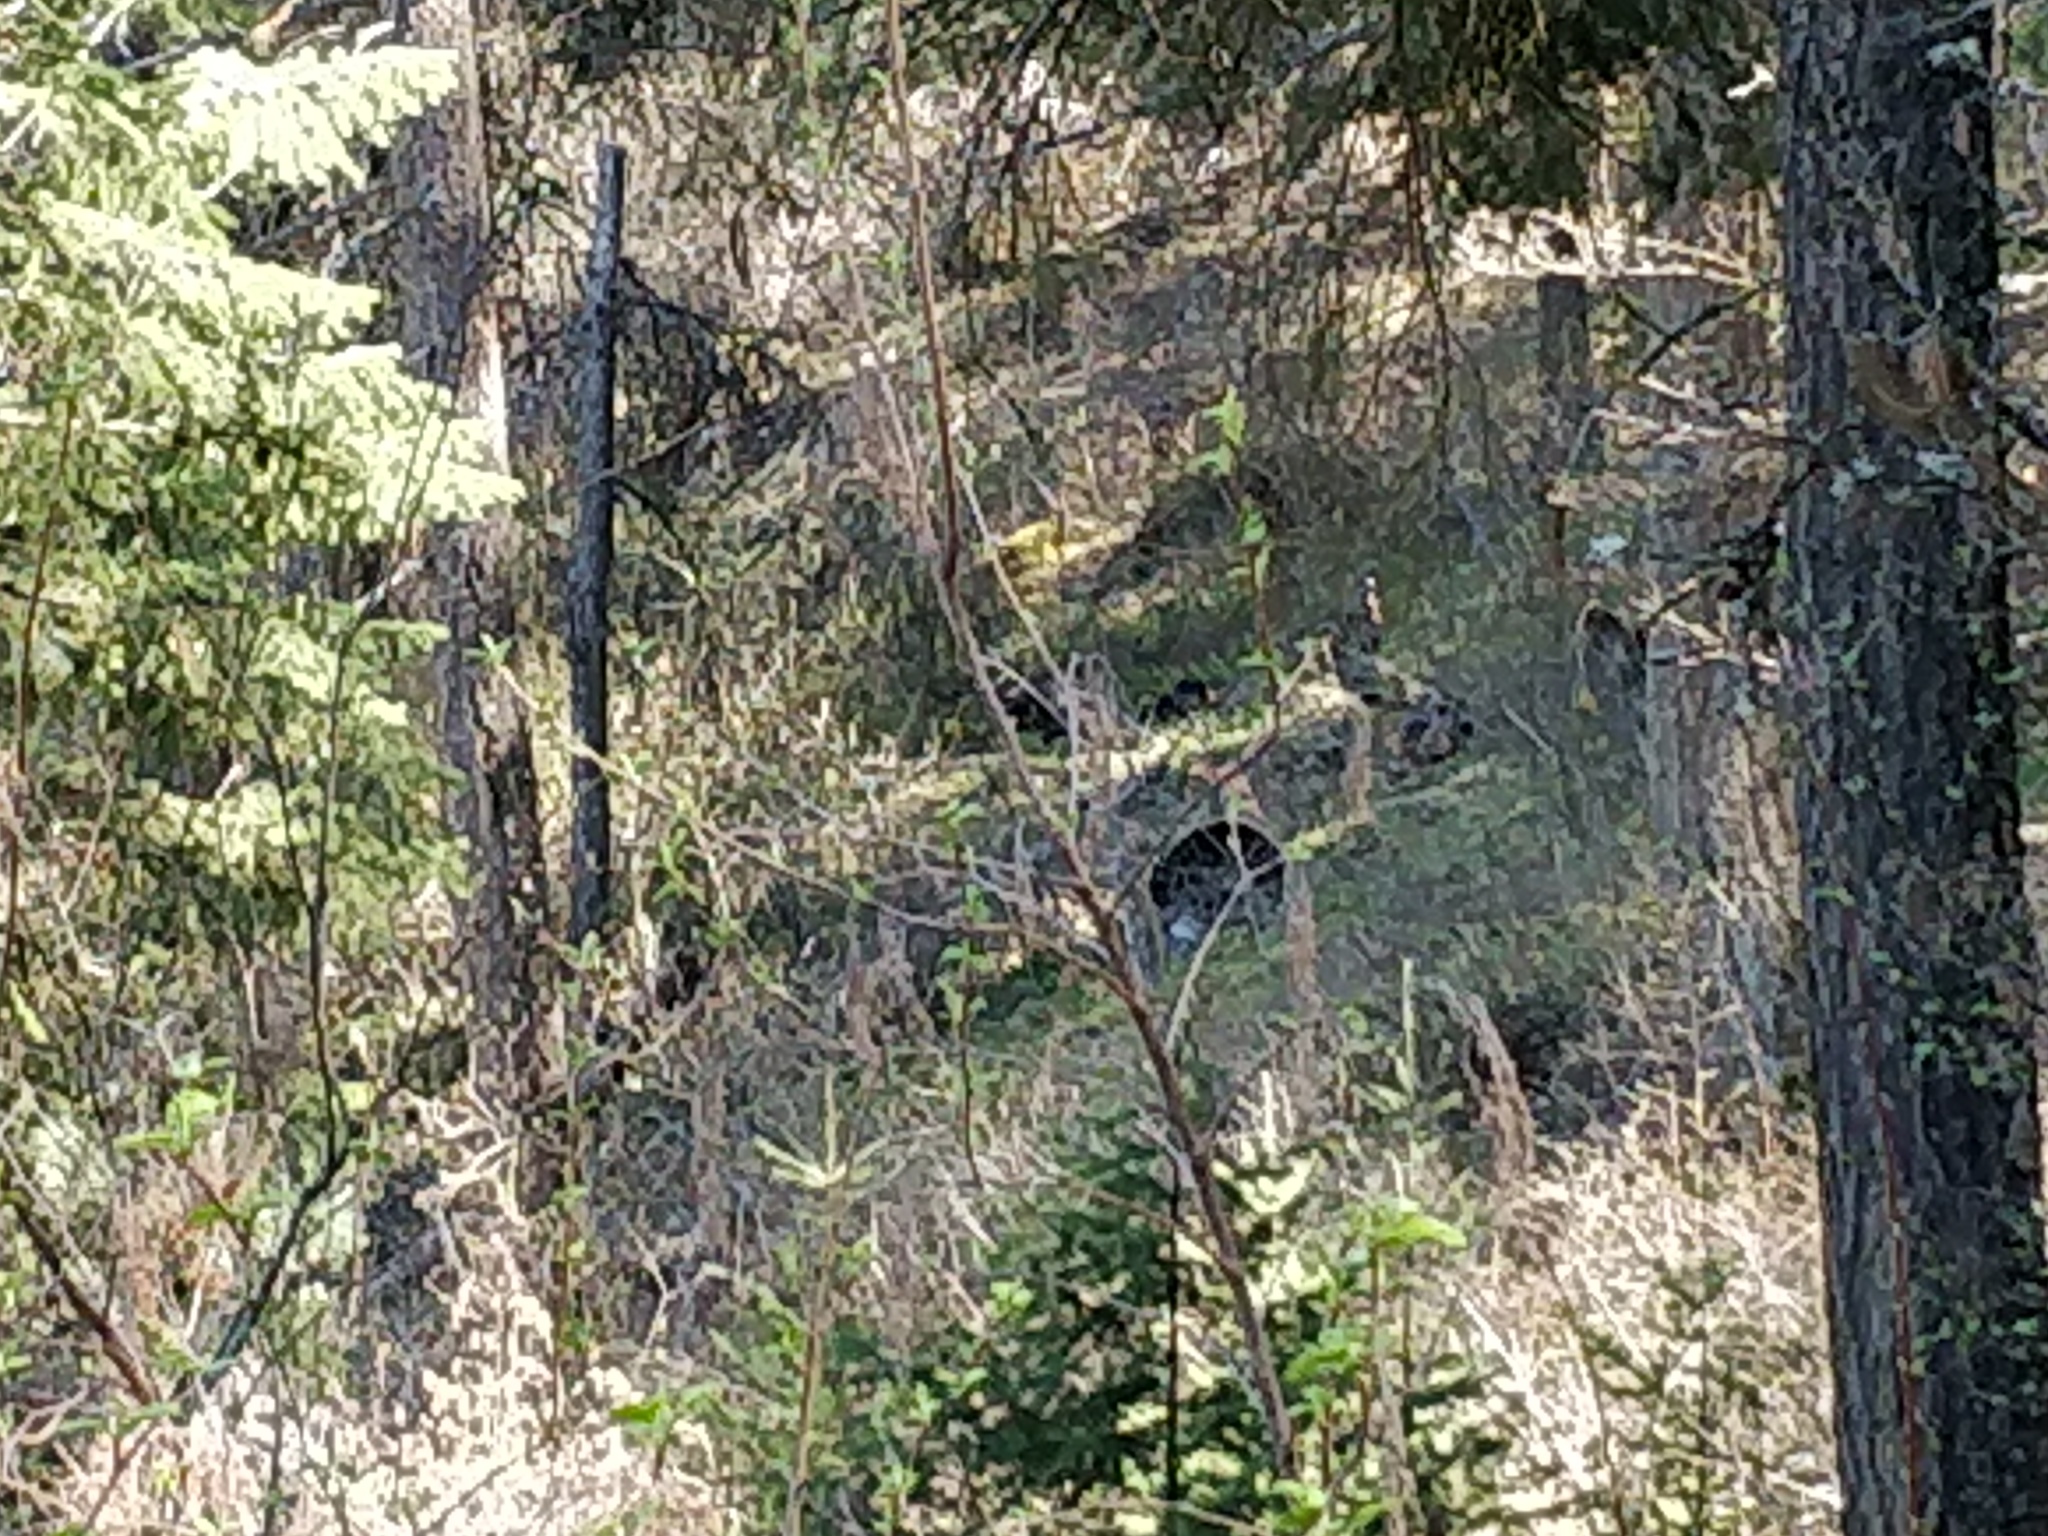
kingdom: Animalia
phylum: Chordata
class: Aves
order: Galliformes
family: Phasianidae
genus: Meleagris
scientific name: Meleagris gallopavo
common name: Wild turkey
